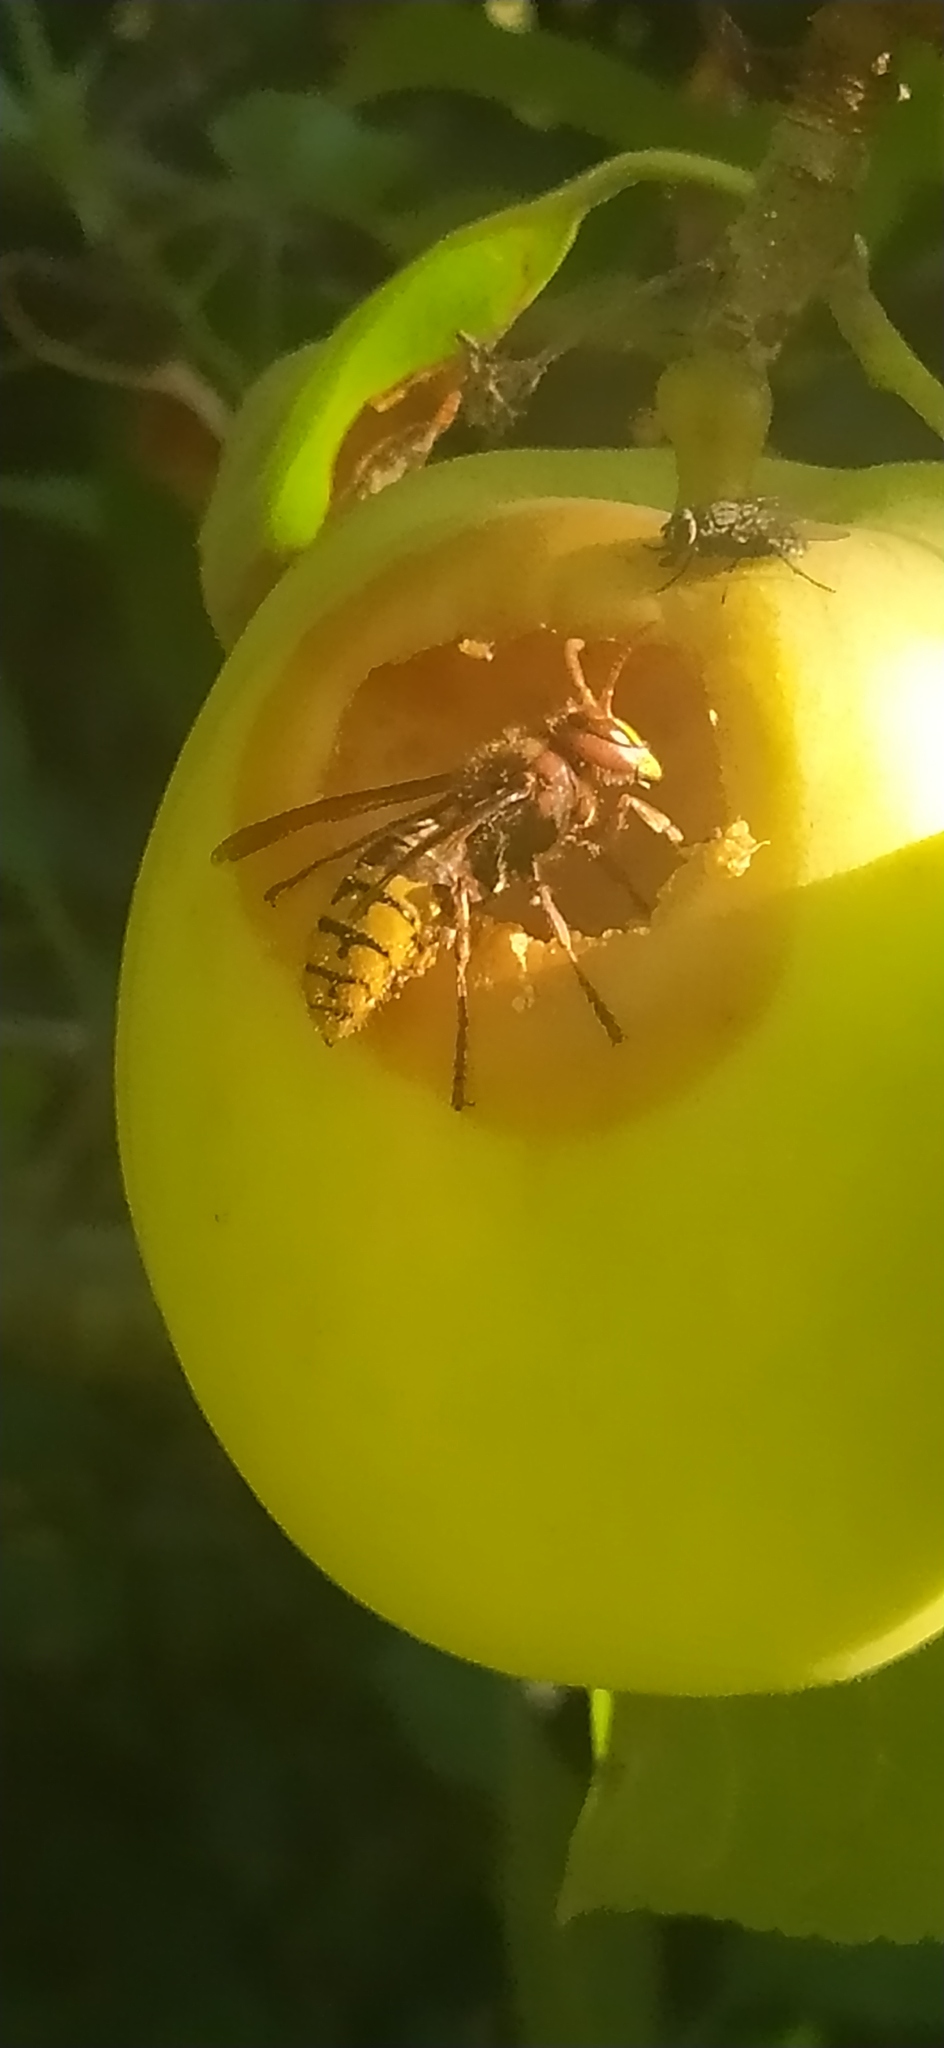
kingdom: Animalia
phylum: Arthropoda
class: Insecta
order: Hymenoptera
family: Vespidae
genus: Vespa
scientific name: Vespa crabro
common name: Hornet
